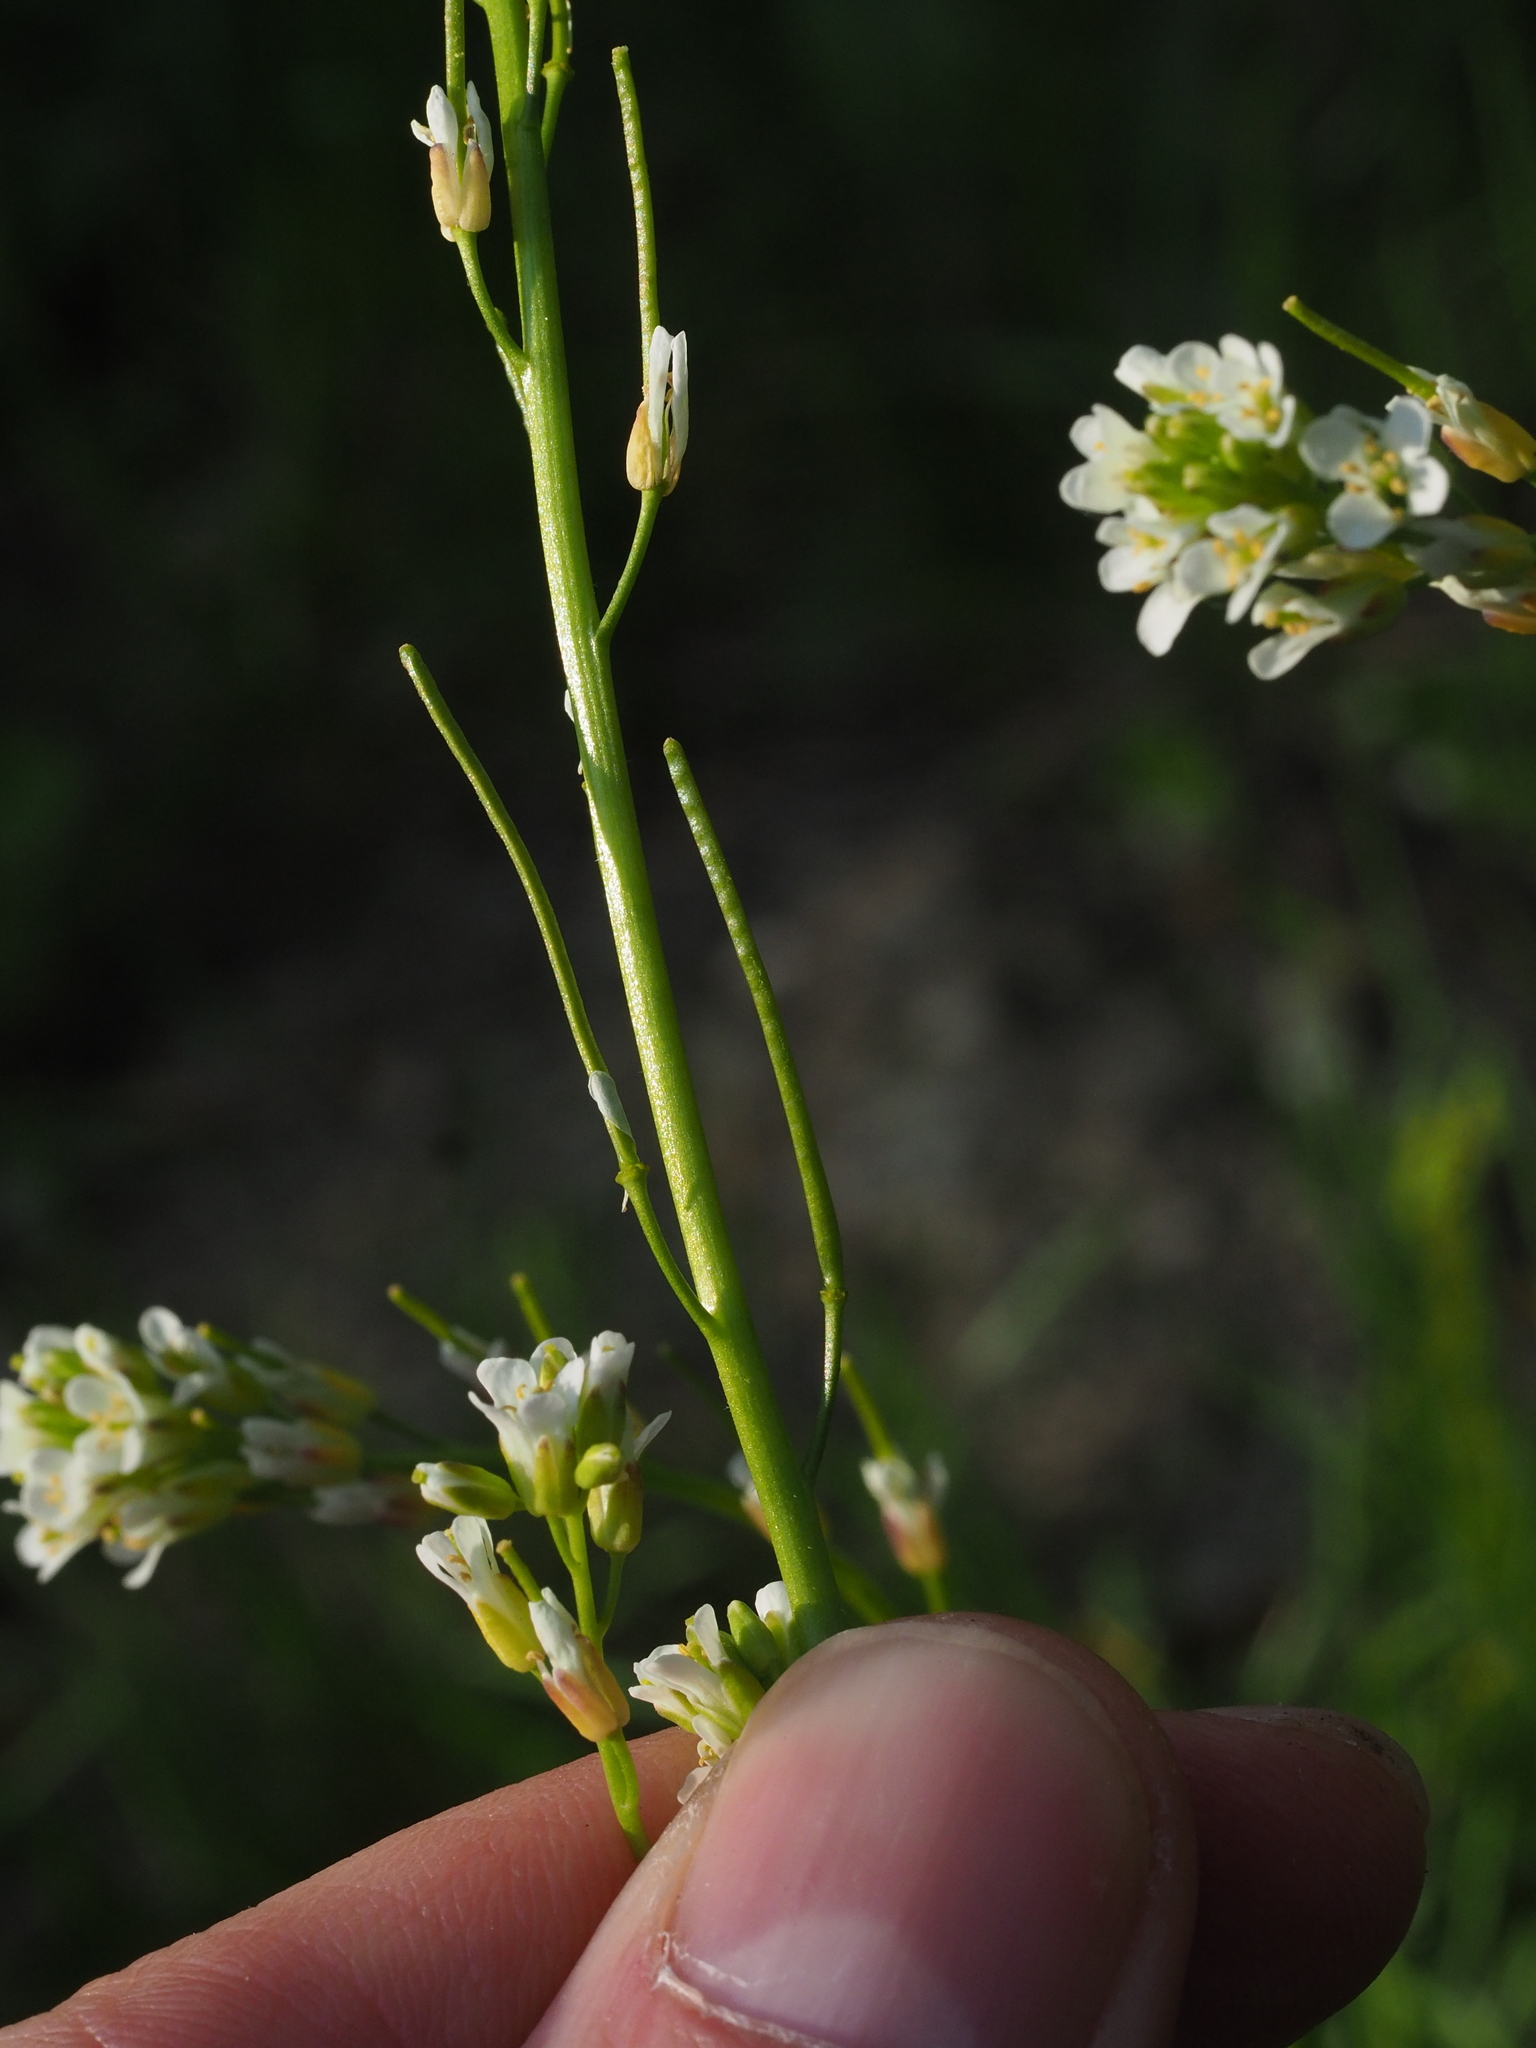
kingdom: Plantae
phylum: Tracheophyta
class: Magnoliopsida
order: Brassicales
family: Brassicaceae
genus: Arabis
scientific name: Arabis hirsuta
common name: Hairy rock-cress
